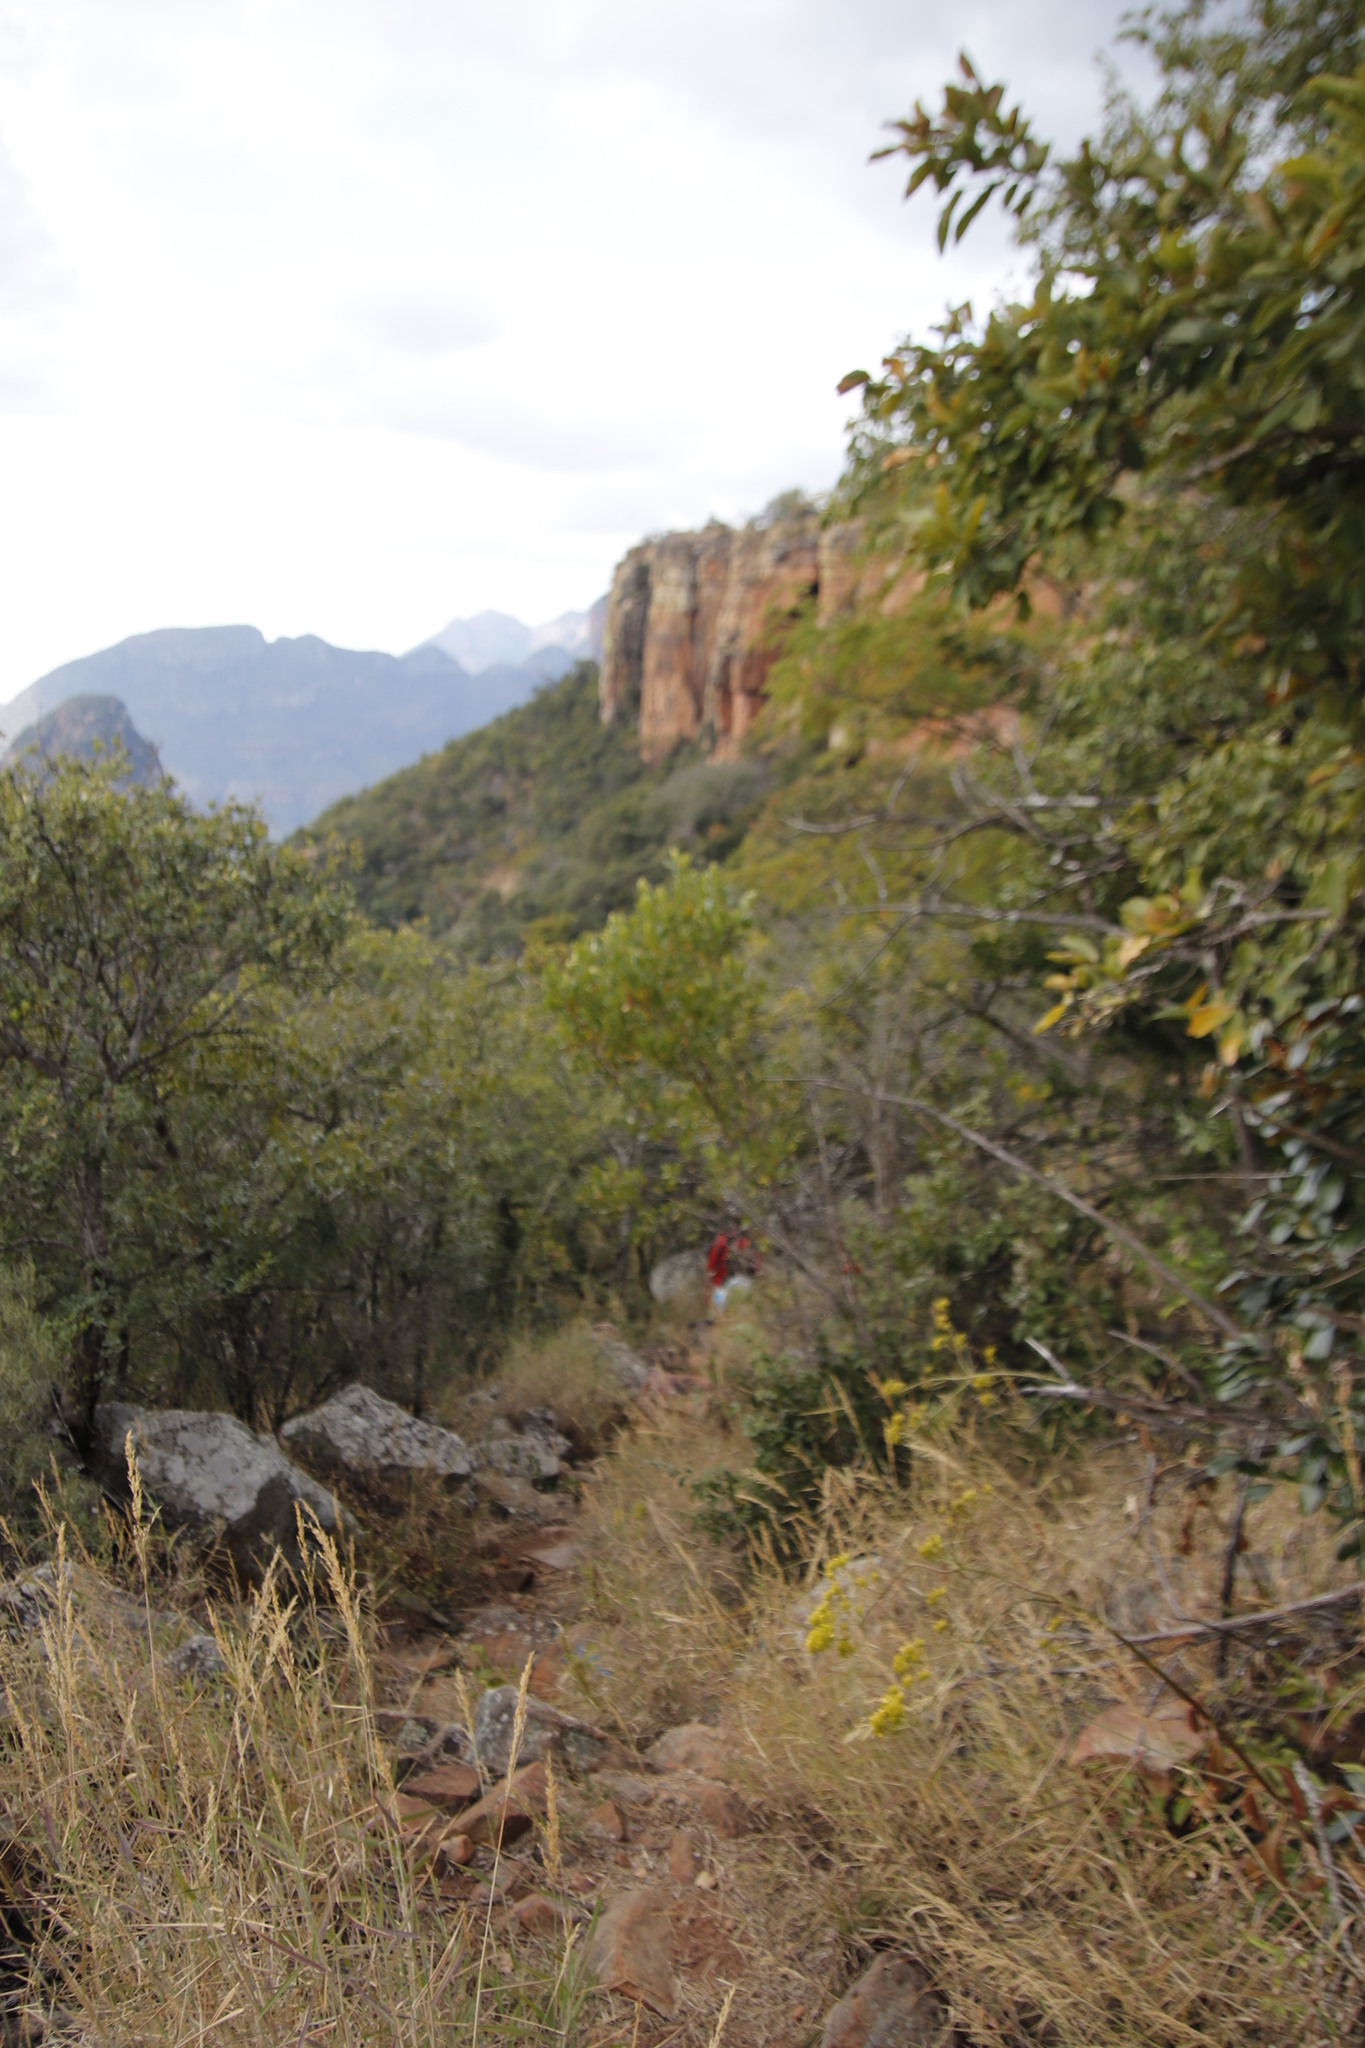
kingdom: Plantae
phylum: Tracheophyta
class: Magnoliopsida
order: Myrtales
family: Combretaceae
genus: Combretum
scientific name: Combretum apiculatum
